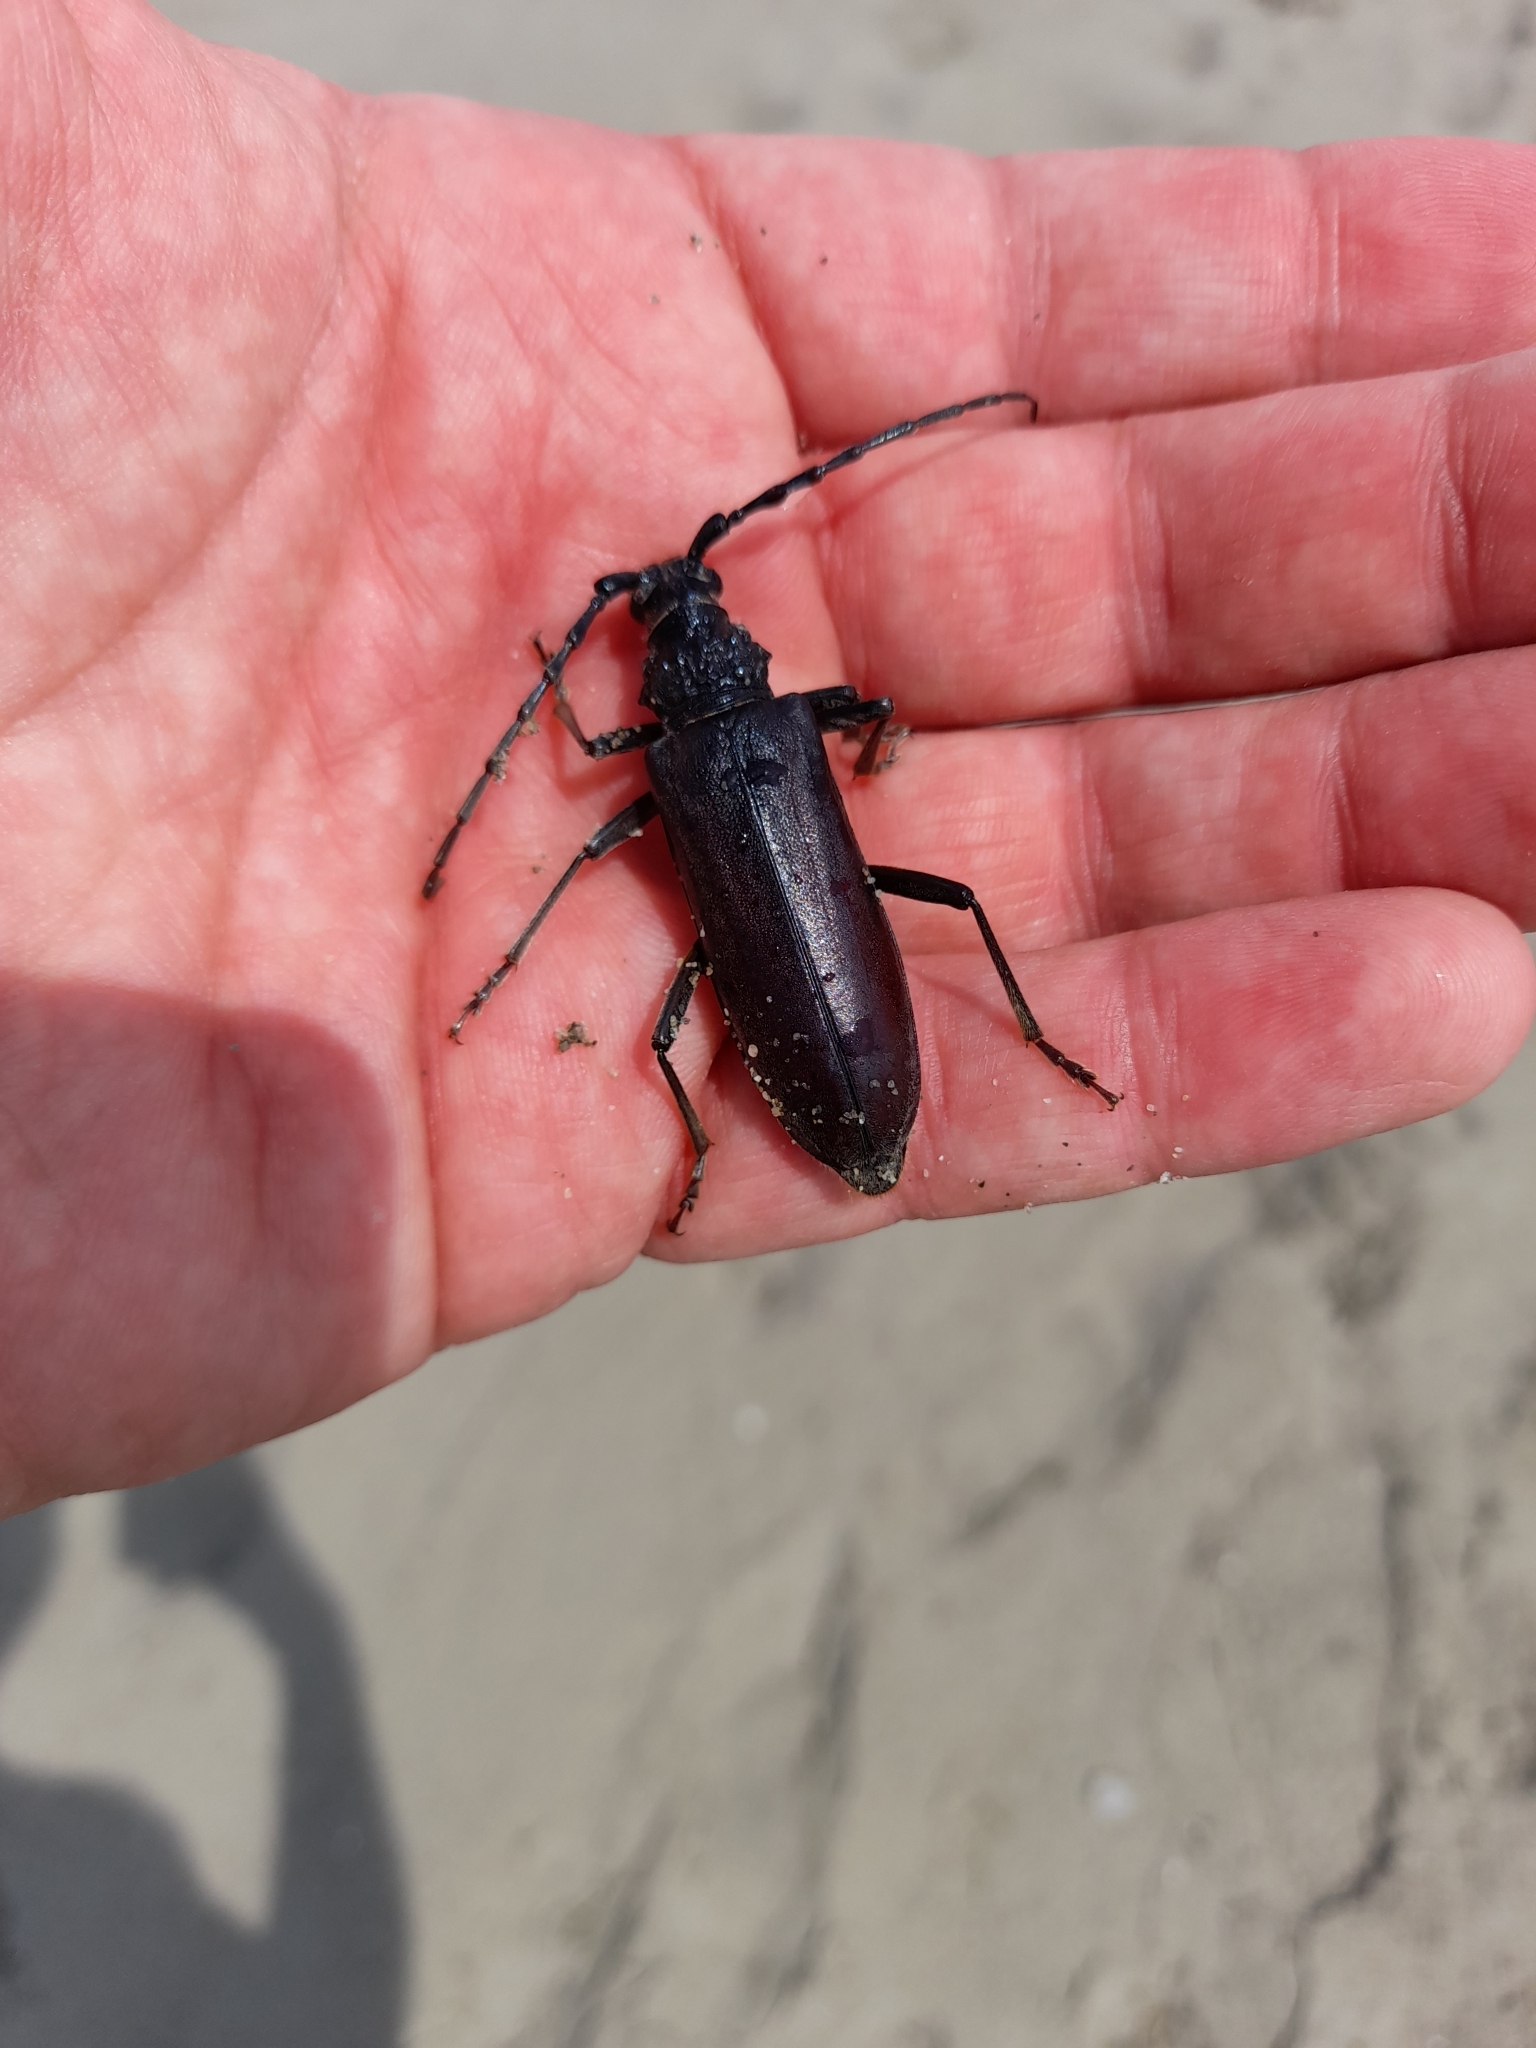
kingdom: Animalia
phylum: Arthropoda
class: Insecta
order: Coleoptera
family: Cerambycidae
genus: Cerambyx
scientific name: Cerambyx welensii
